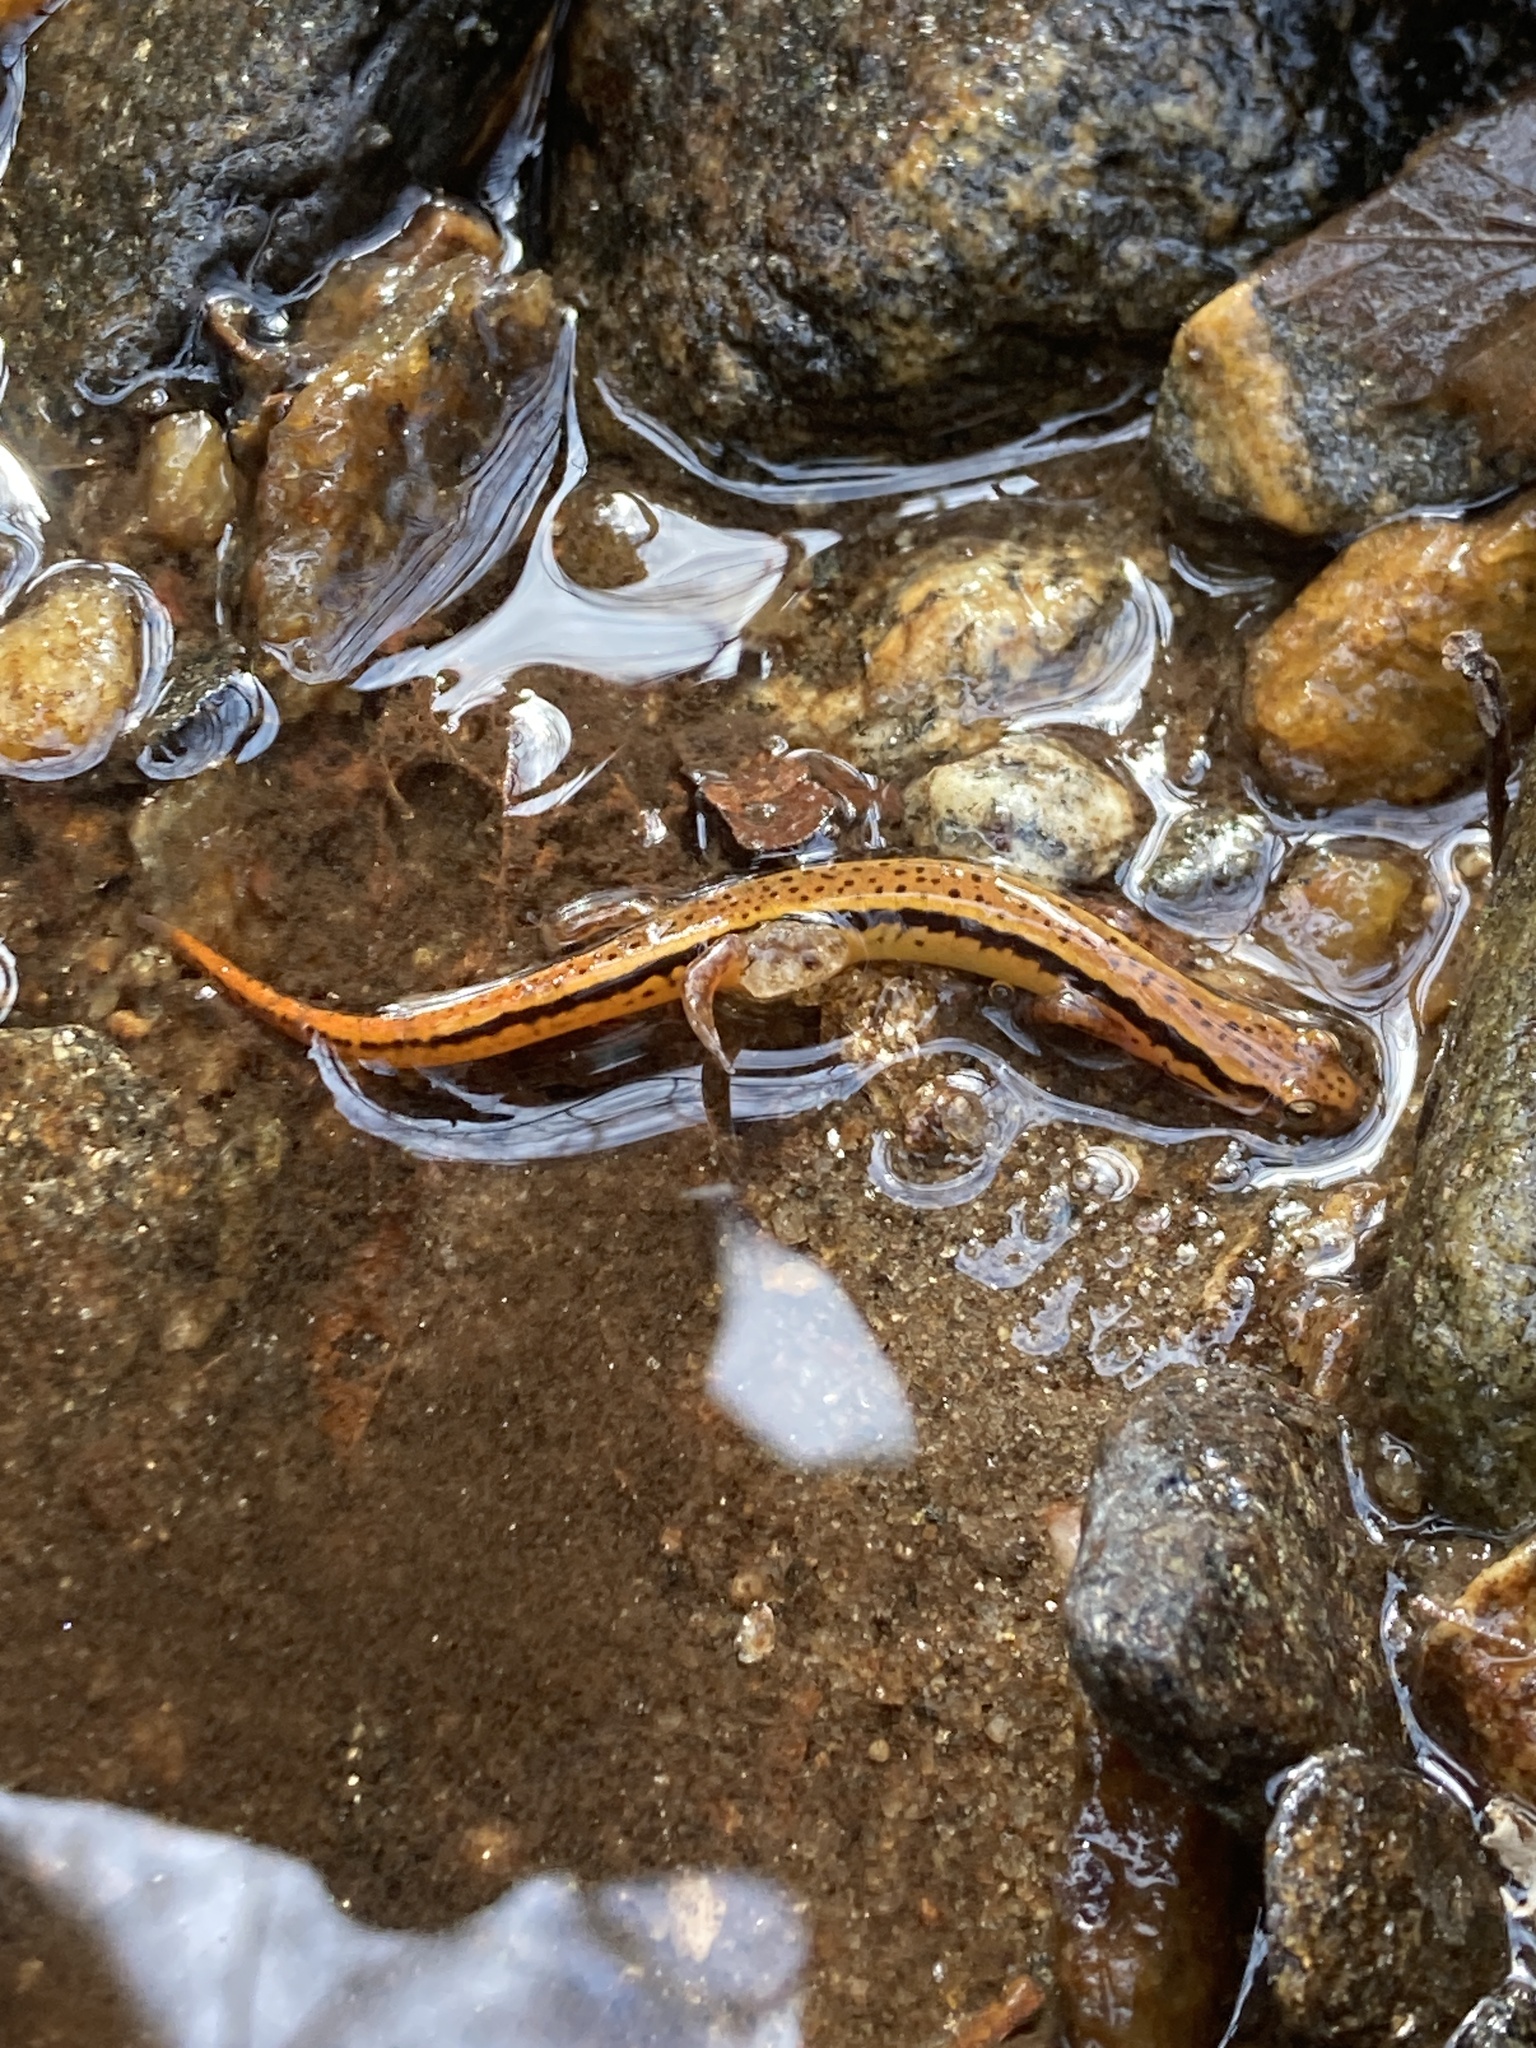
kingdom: Animalia
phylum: Chordata
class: Amphibia
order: Caudata
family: Plethodontidae
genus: Eurycea
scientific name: Eurycea wilderae
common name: Blue ridge two-lined salamander
